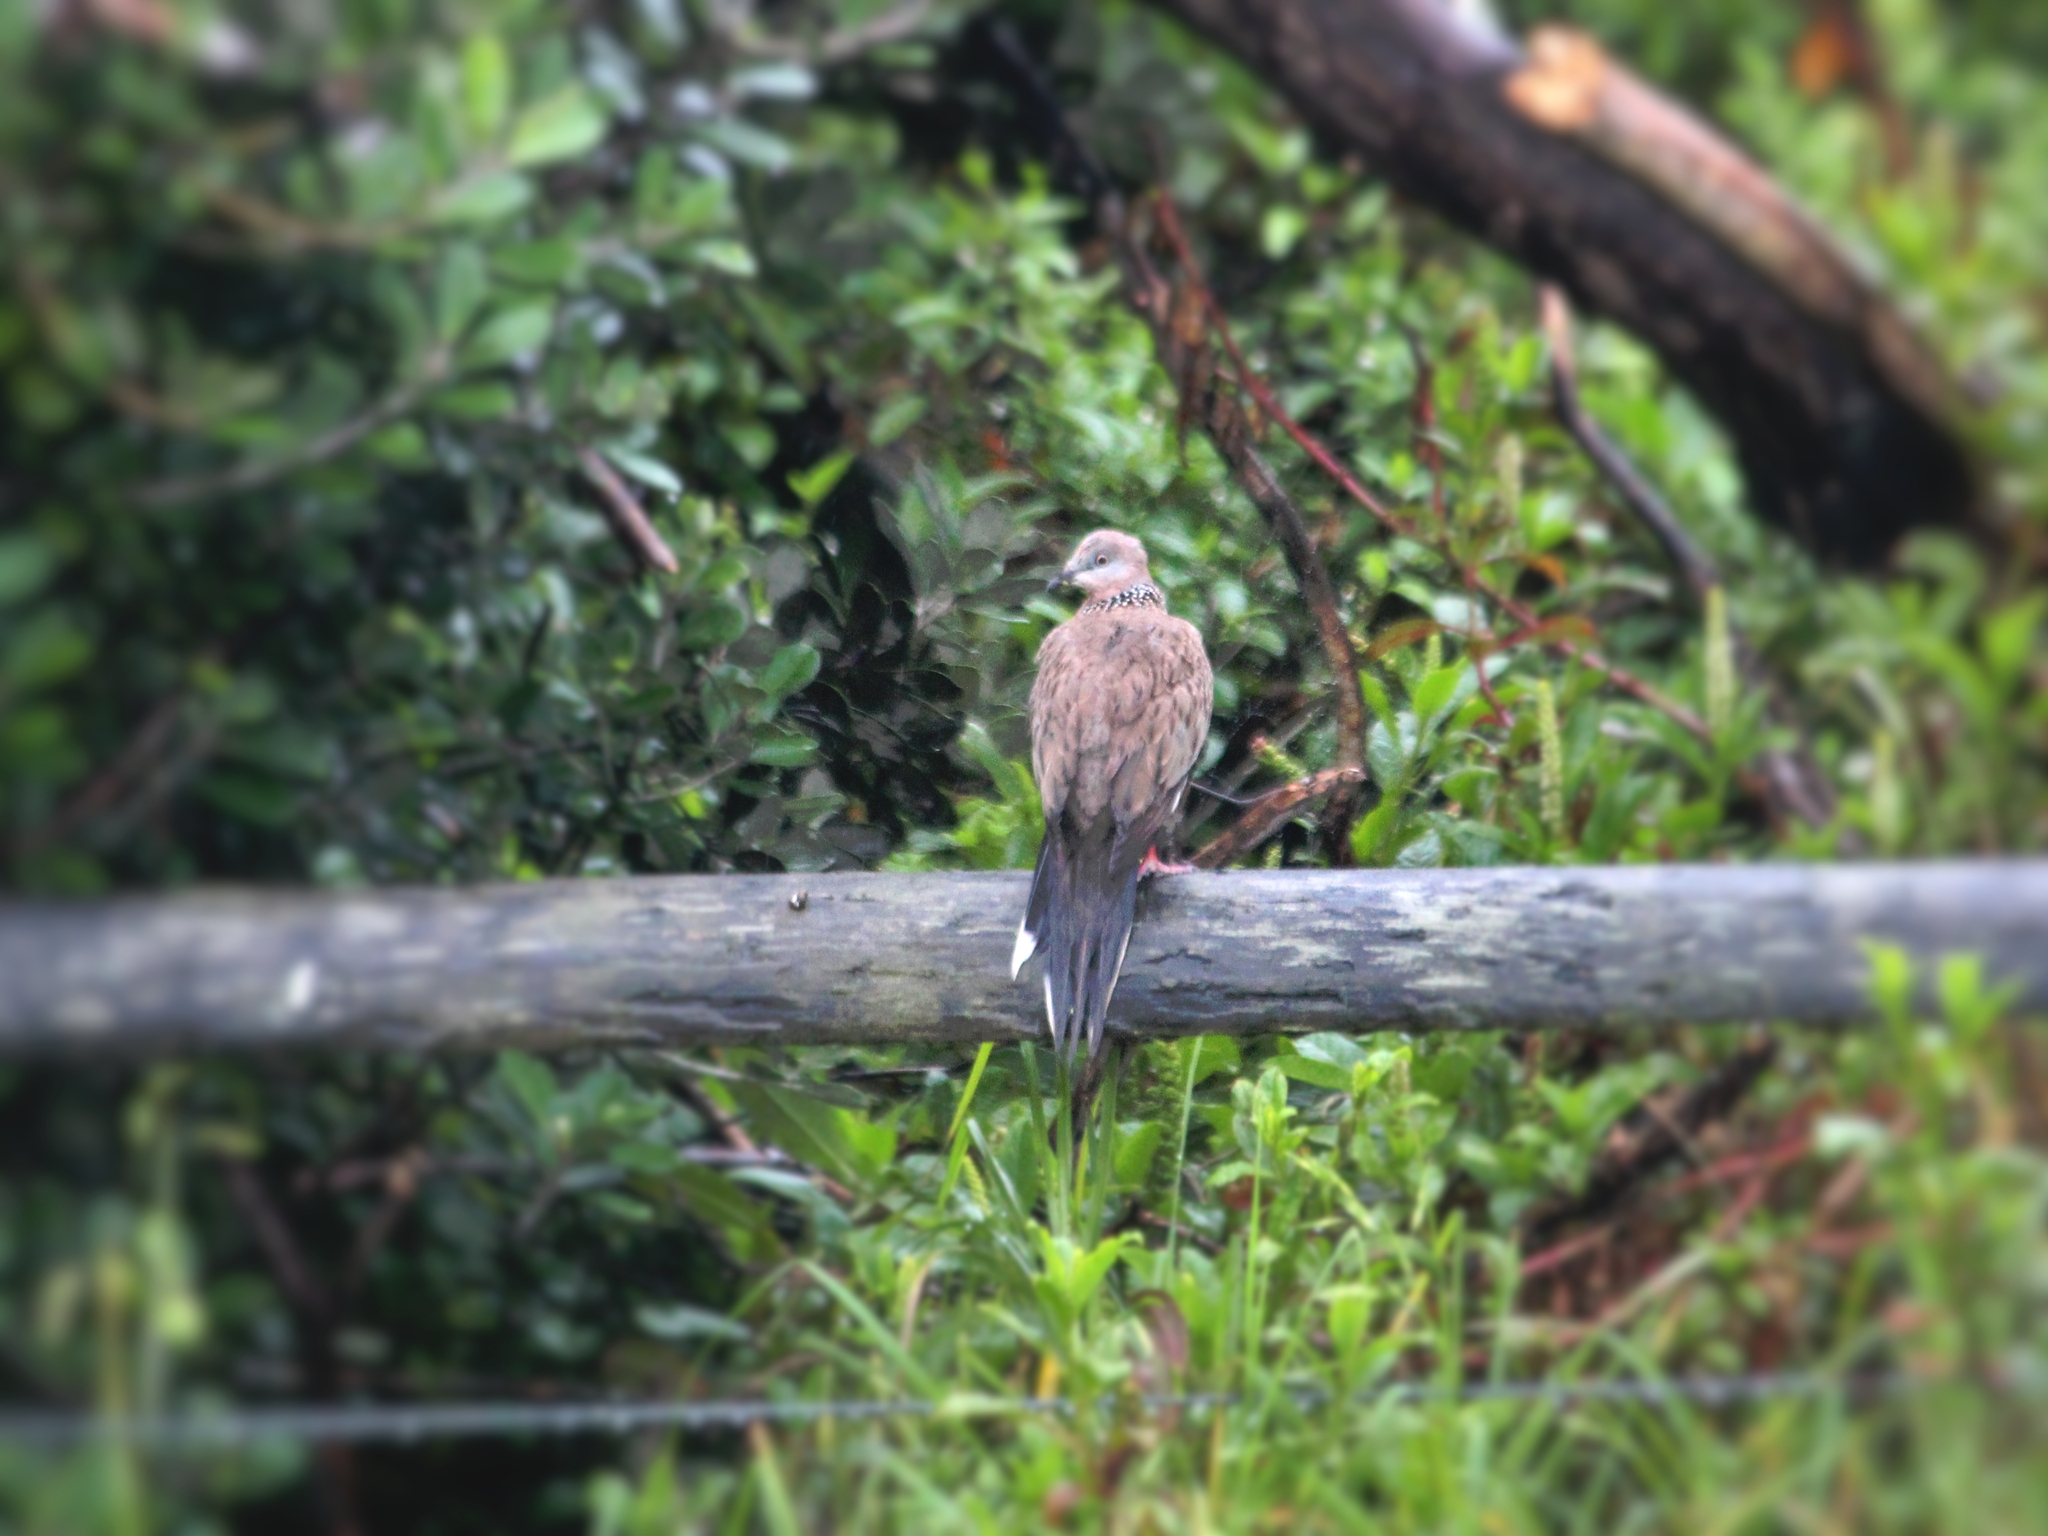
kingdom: Animalia
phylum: Chordata
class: Aves
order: Columbiformes
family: Columbidae
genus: Spilopelia
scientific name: Spilopelia chinensis
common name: Spotted dove
